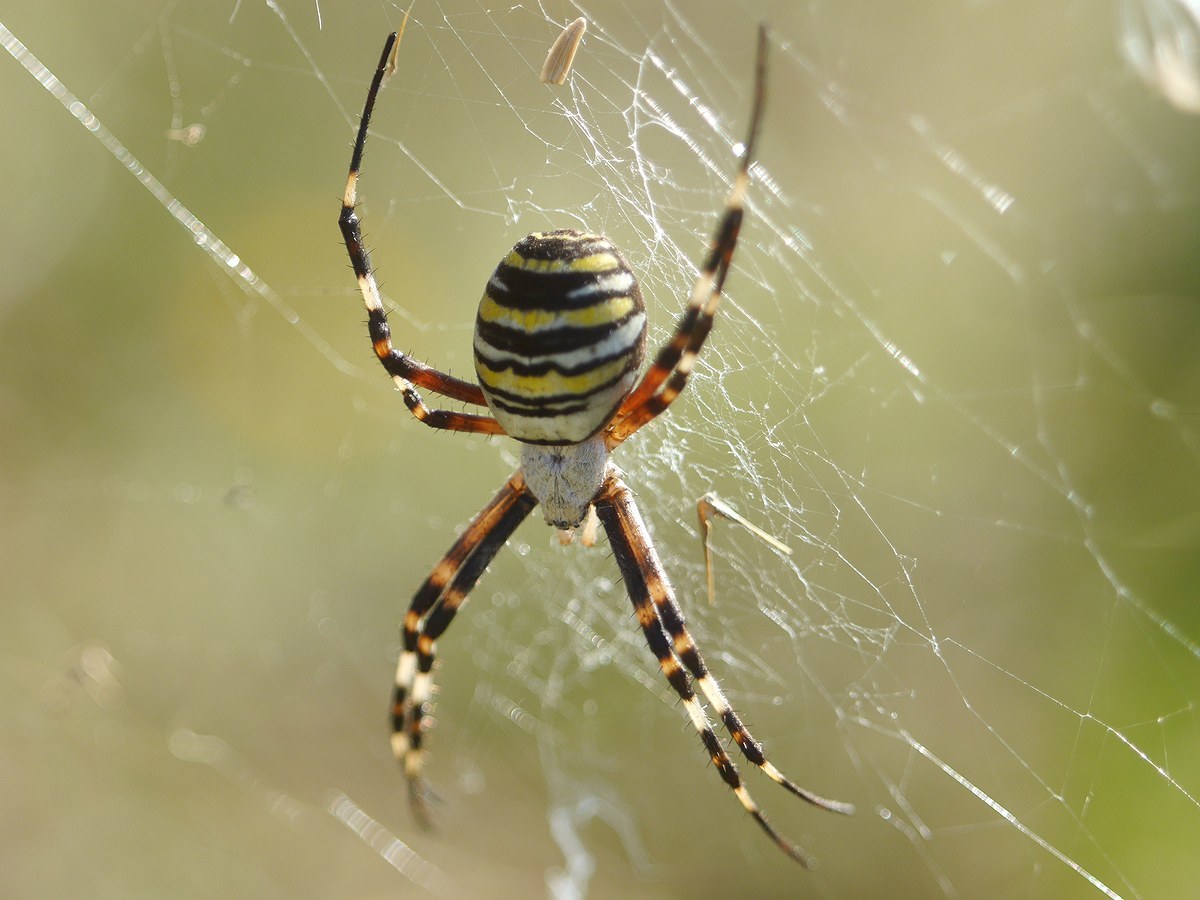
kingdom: Animalia
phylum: Arthropoda
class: Arachnida
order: Araneae
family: Araneidae
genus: Argiope
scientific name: Argiope bruennichi
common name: Wasp spider
